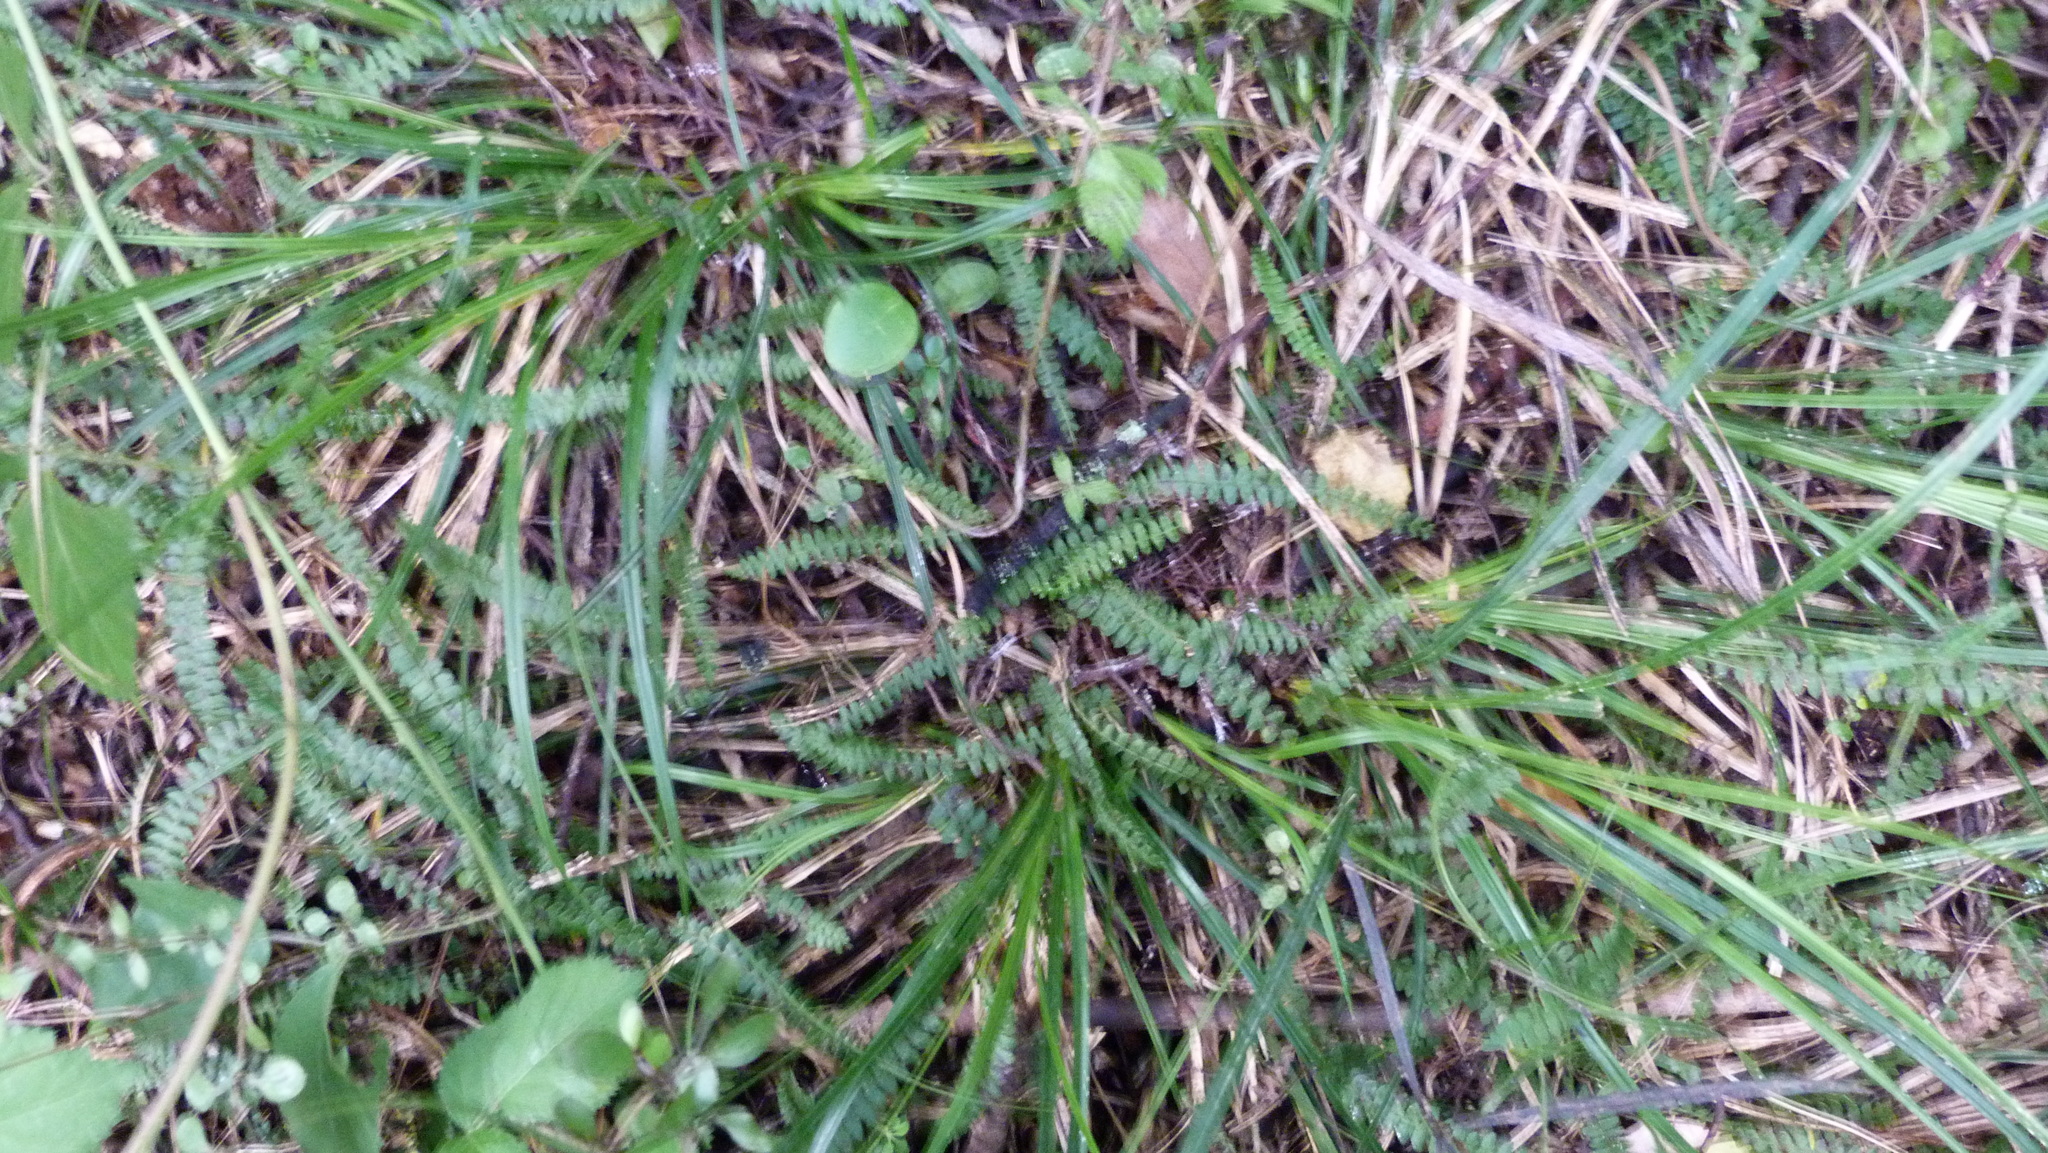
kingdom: Plantae
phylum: Tracheophyta
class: Polypodiopsida
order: Polypodiales
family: Blechnaceae
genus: Austroblechnum
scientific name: Austroblechnum penna-marina
